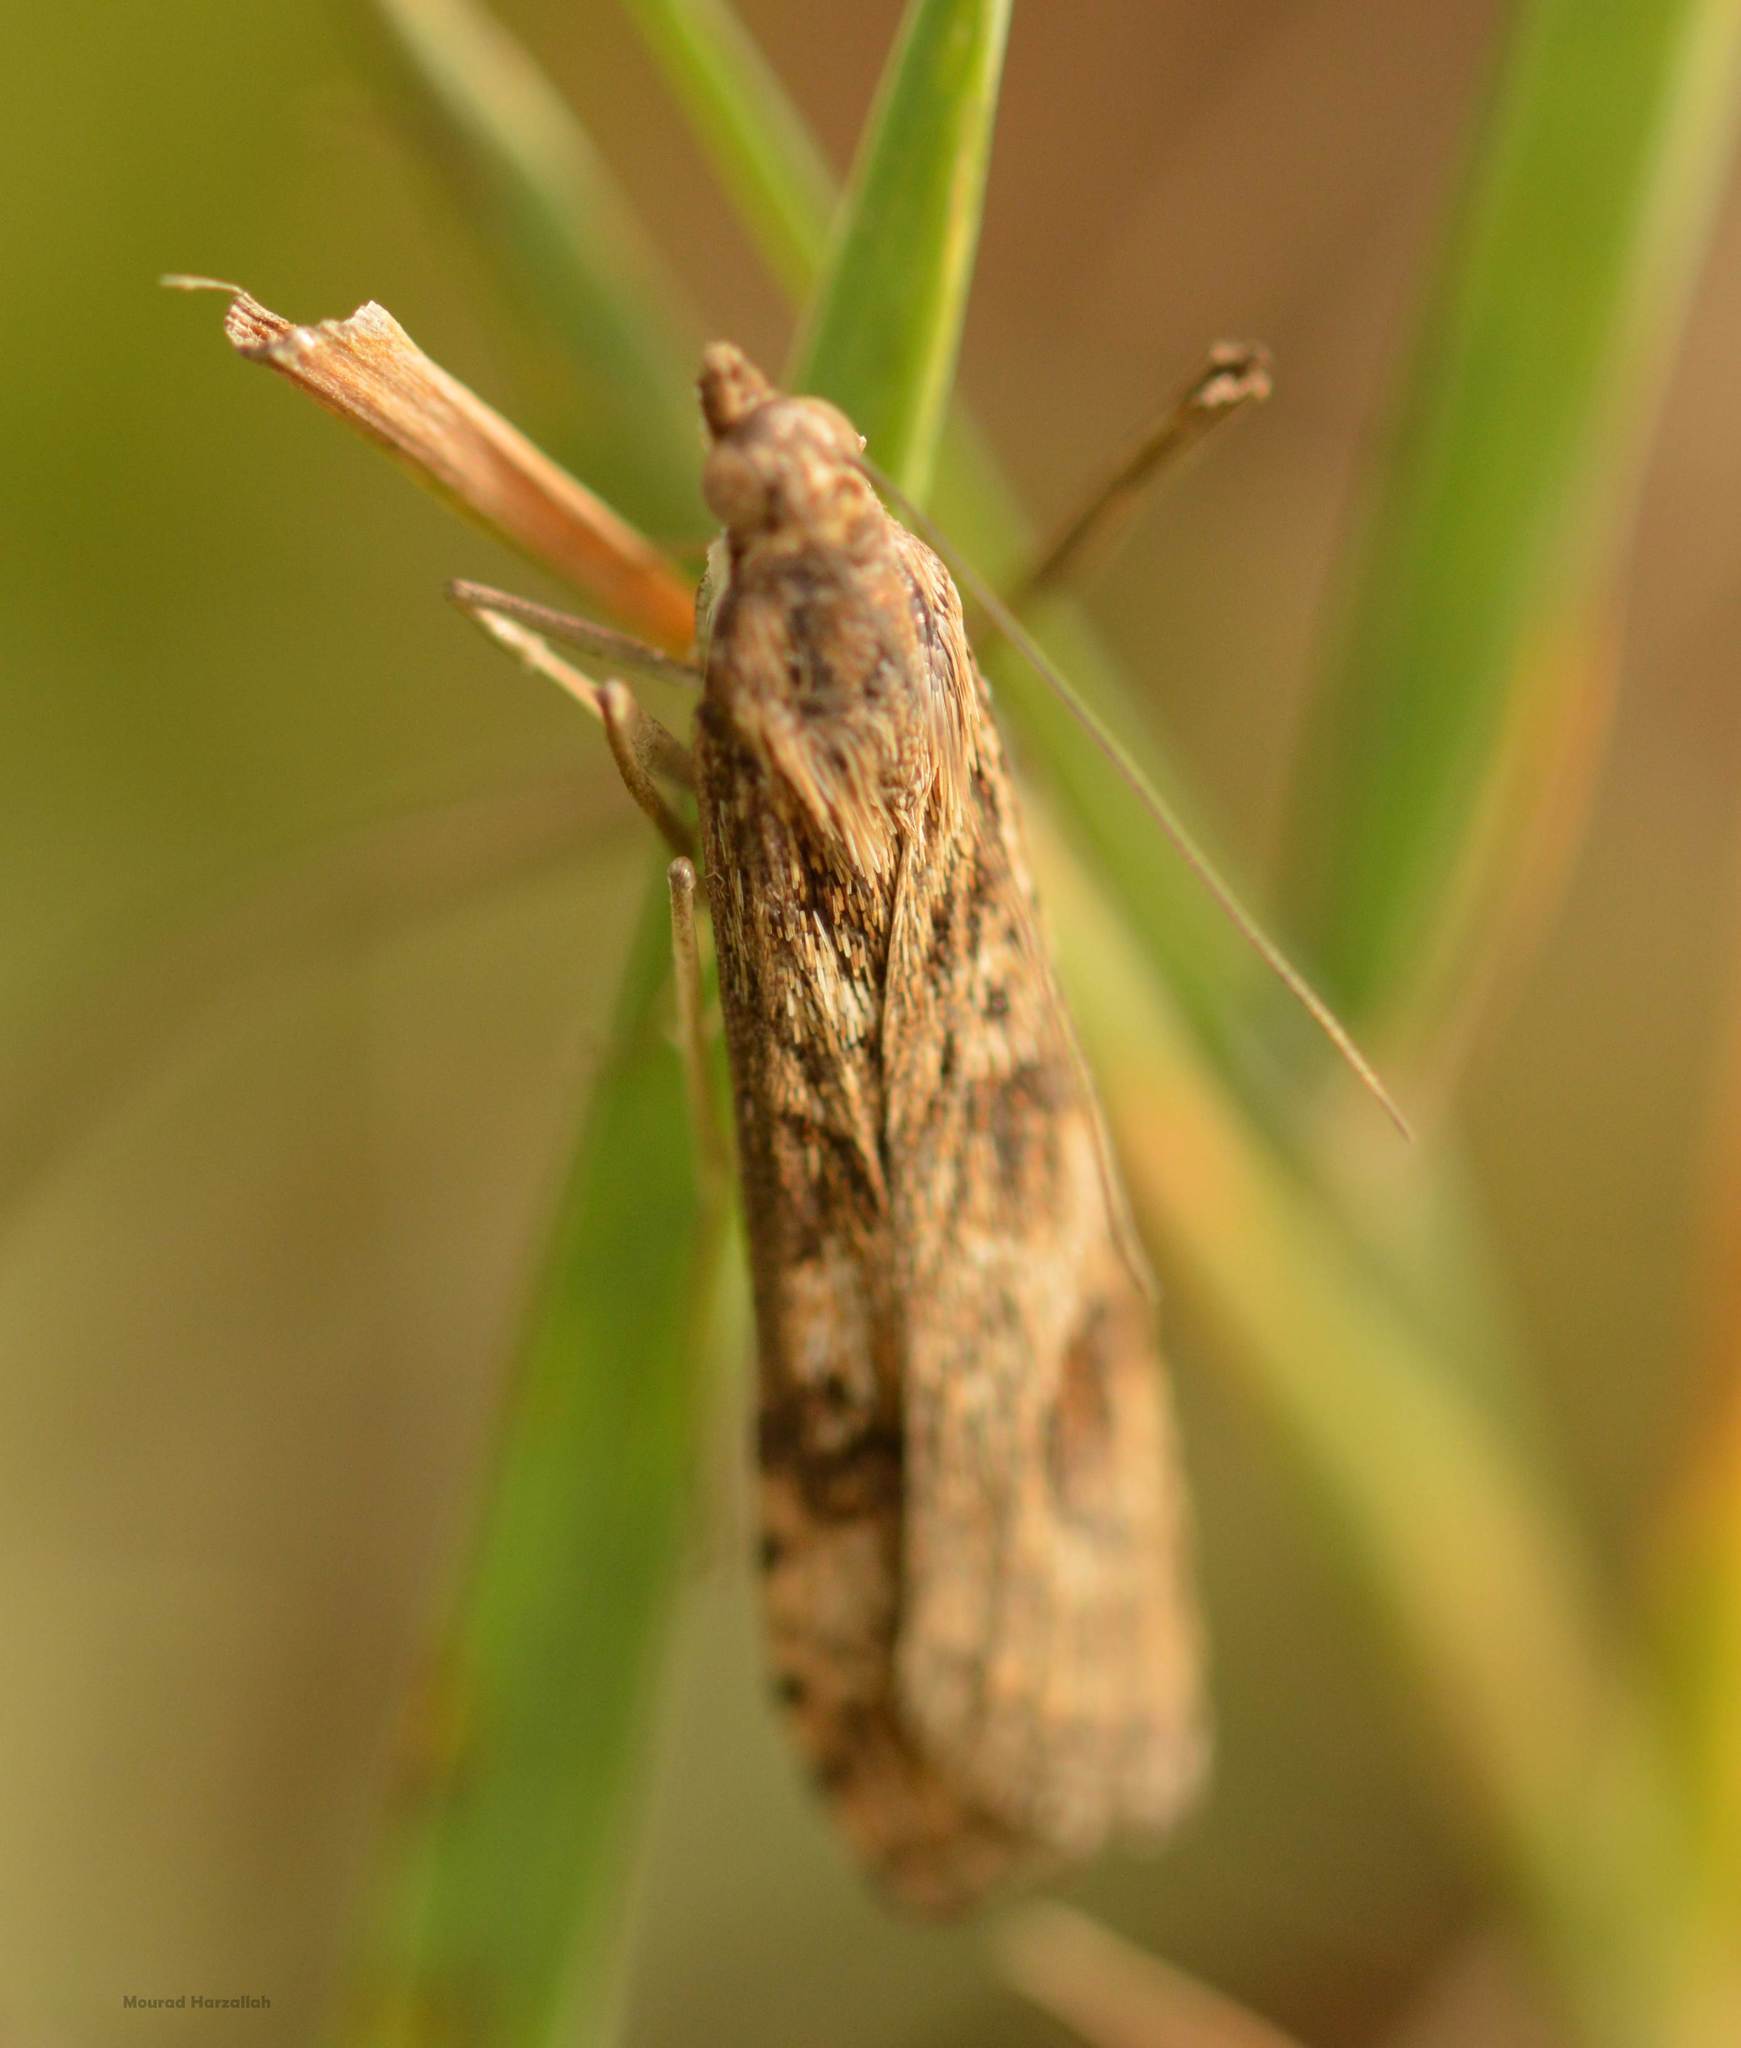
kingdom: Animalia
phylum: Arthropoda
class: Insecta
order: Lepidoptera
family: Crambidae
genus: Nomophila
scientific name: Nomophila noctuella
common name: Rush veneer
